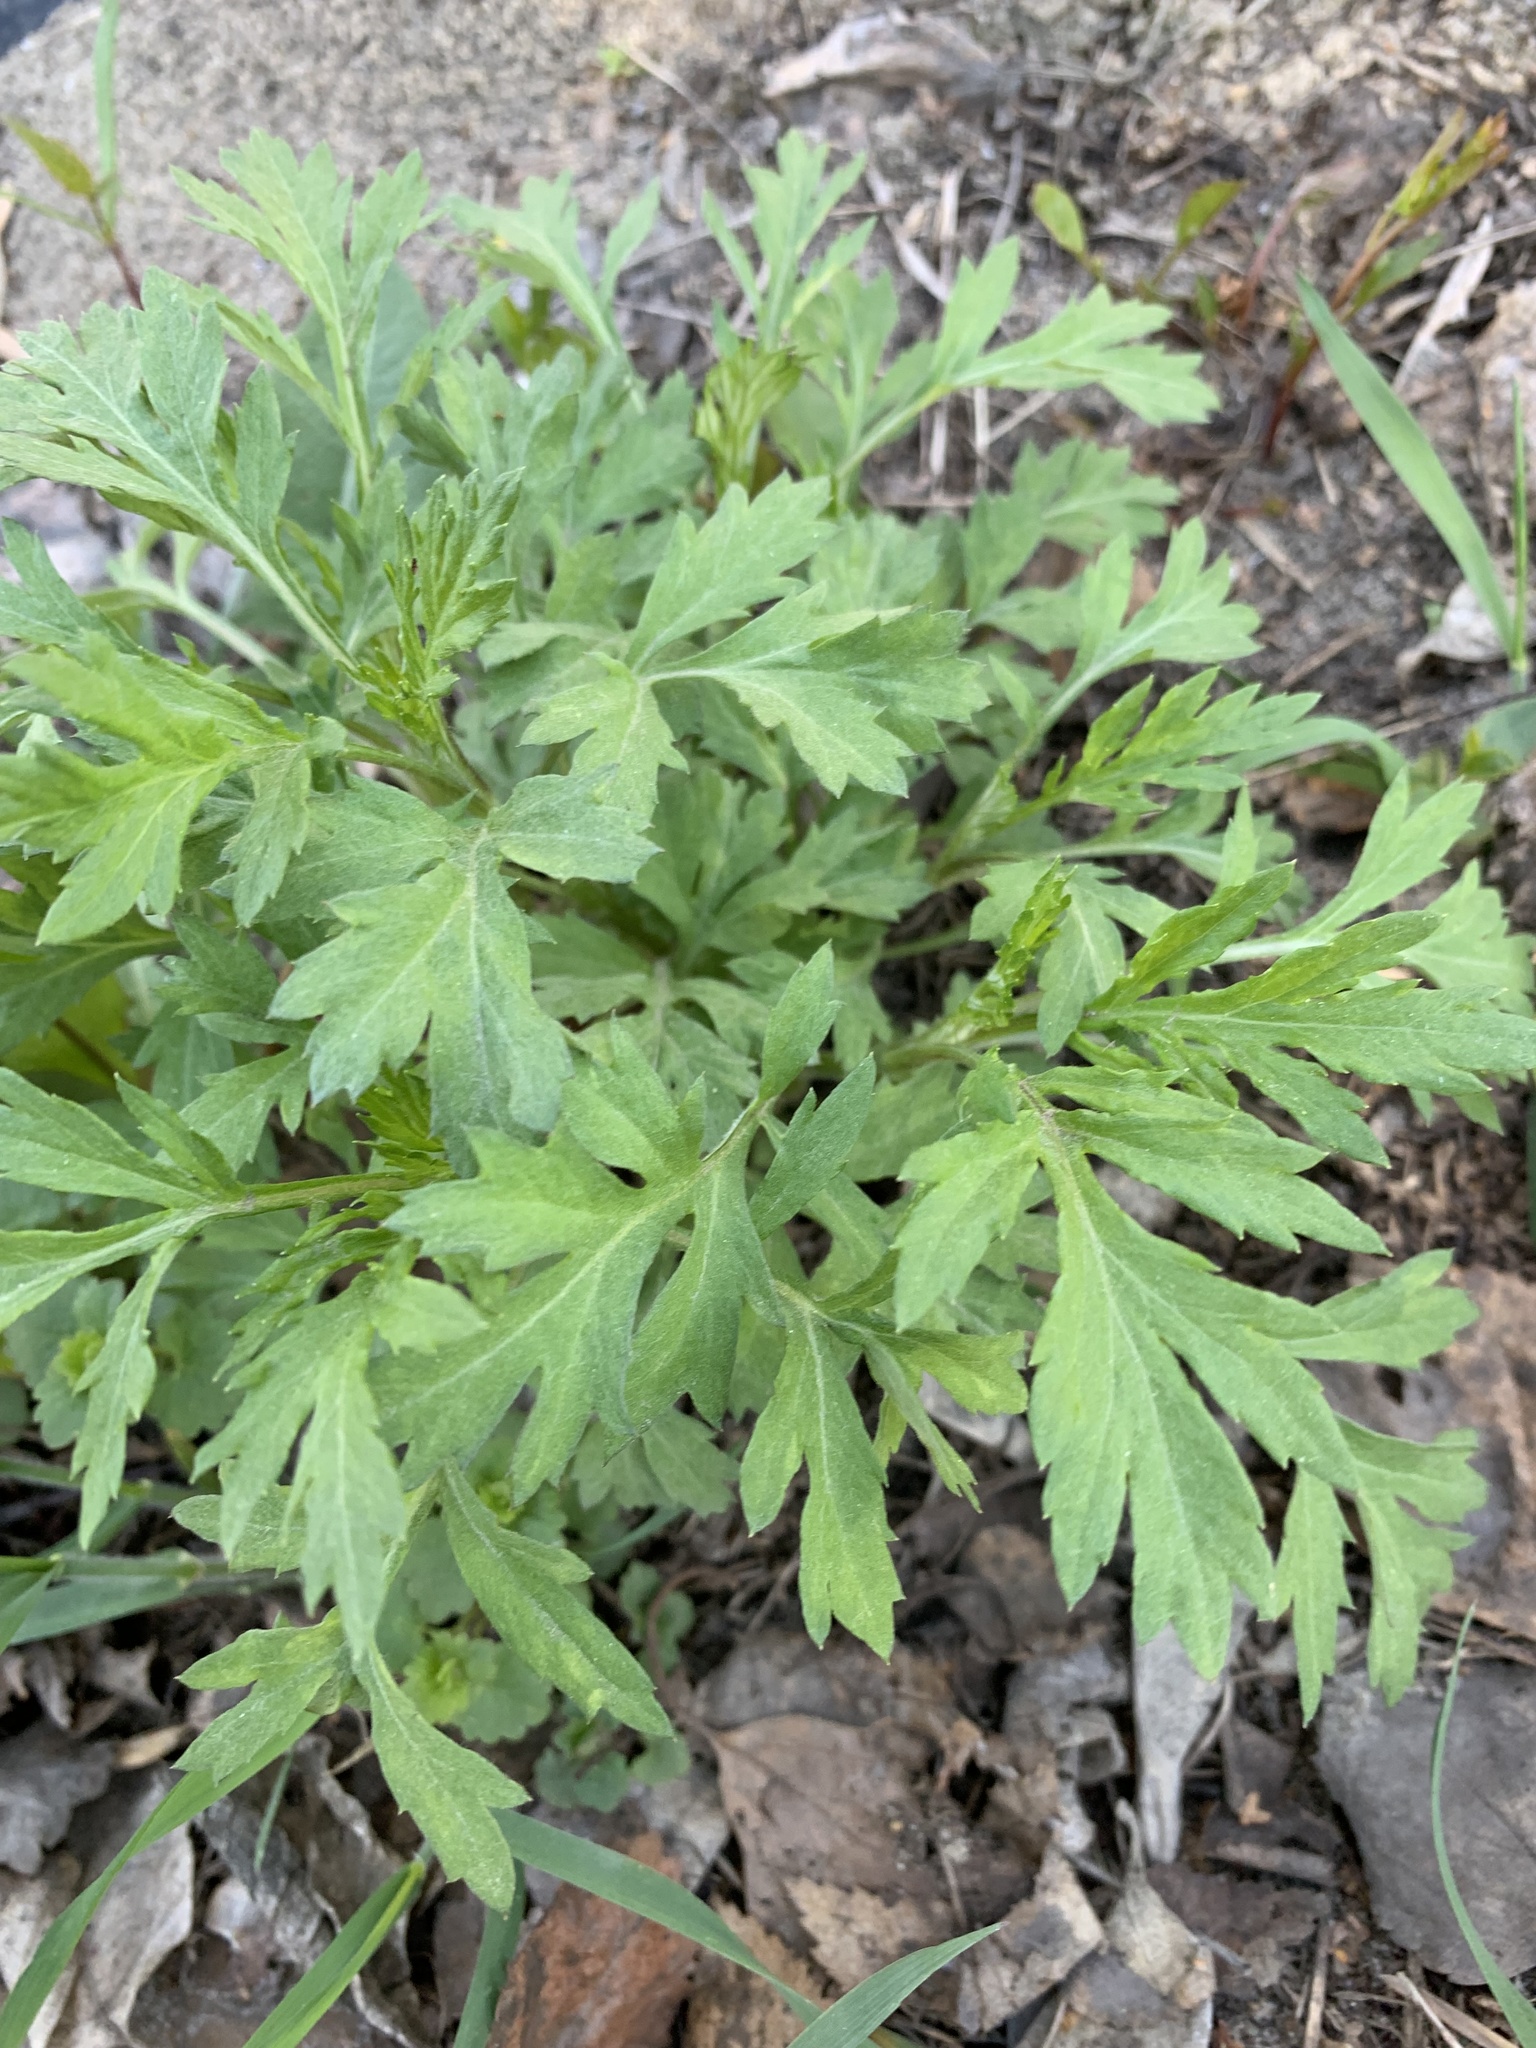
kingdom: Plantae
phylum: Tracheophyta
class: Magnoliopsida
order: Asterales
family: Asteraceae
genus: Artemisia
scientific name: Artemisia vulgaris
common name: Mugwort
